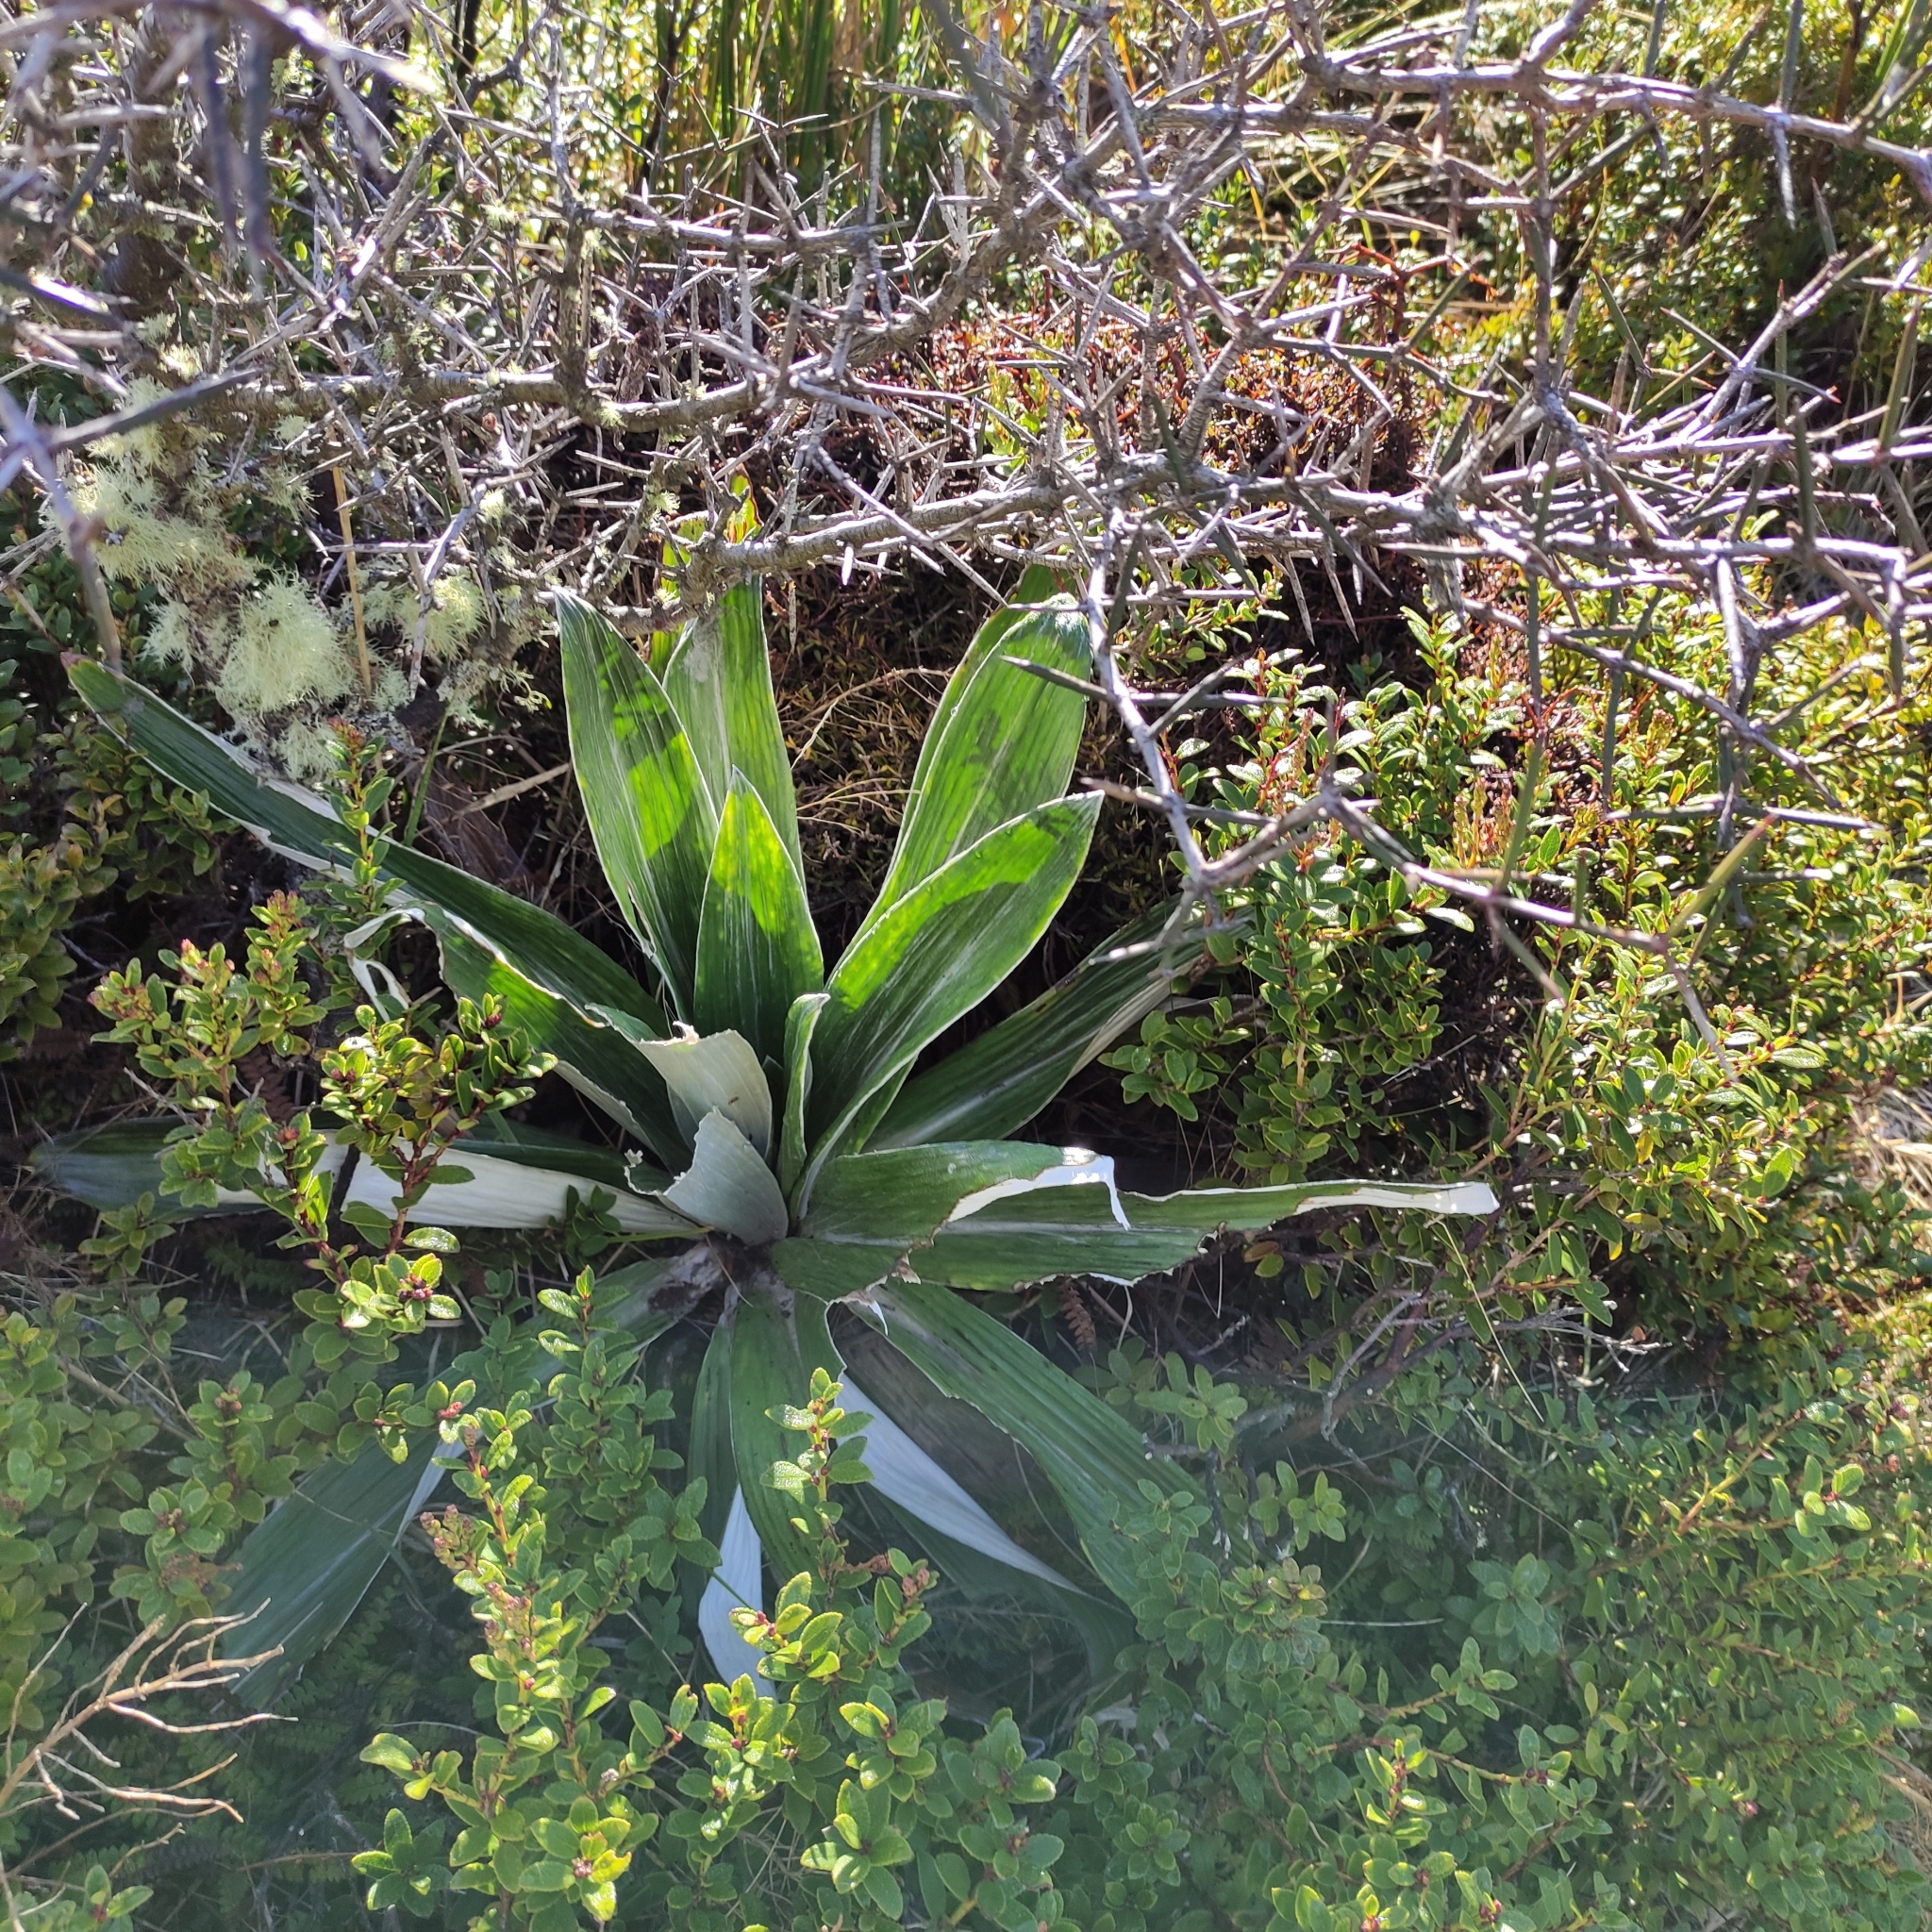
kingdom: Plantae
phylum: Tracheophyta
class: Magnoliopsida
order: Asterales
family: Asteraceae
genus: Celmisia
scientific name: Celmisia semicordata
